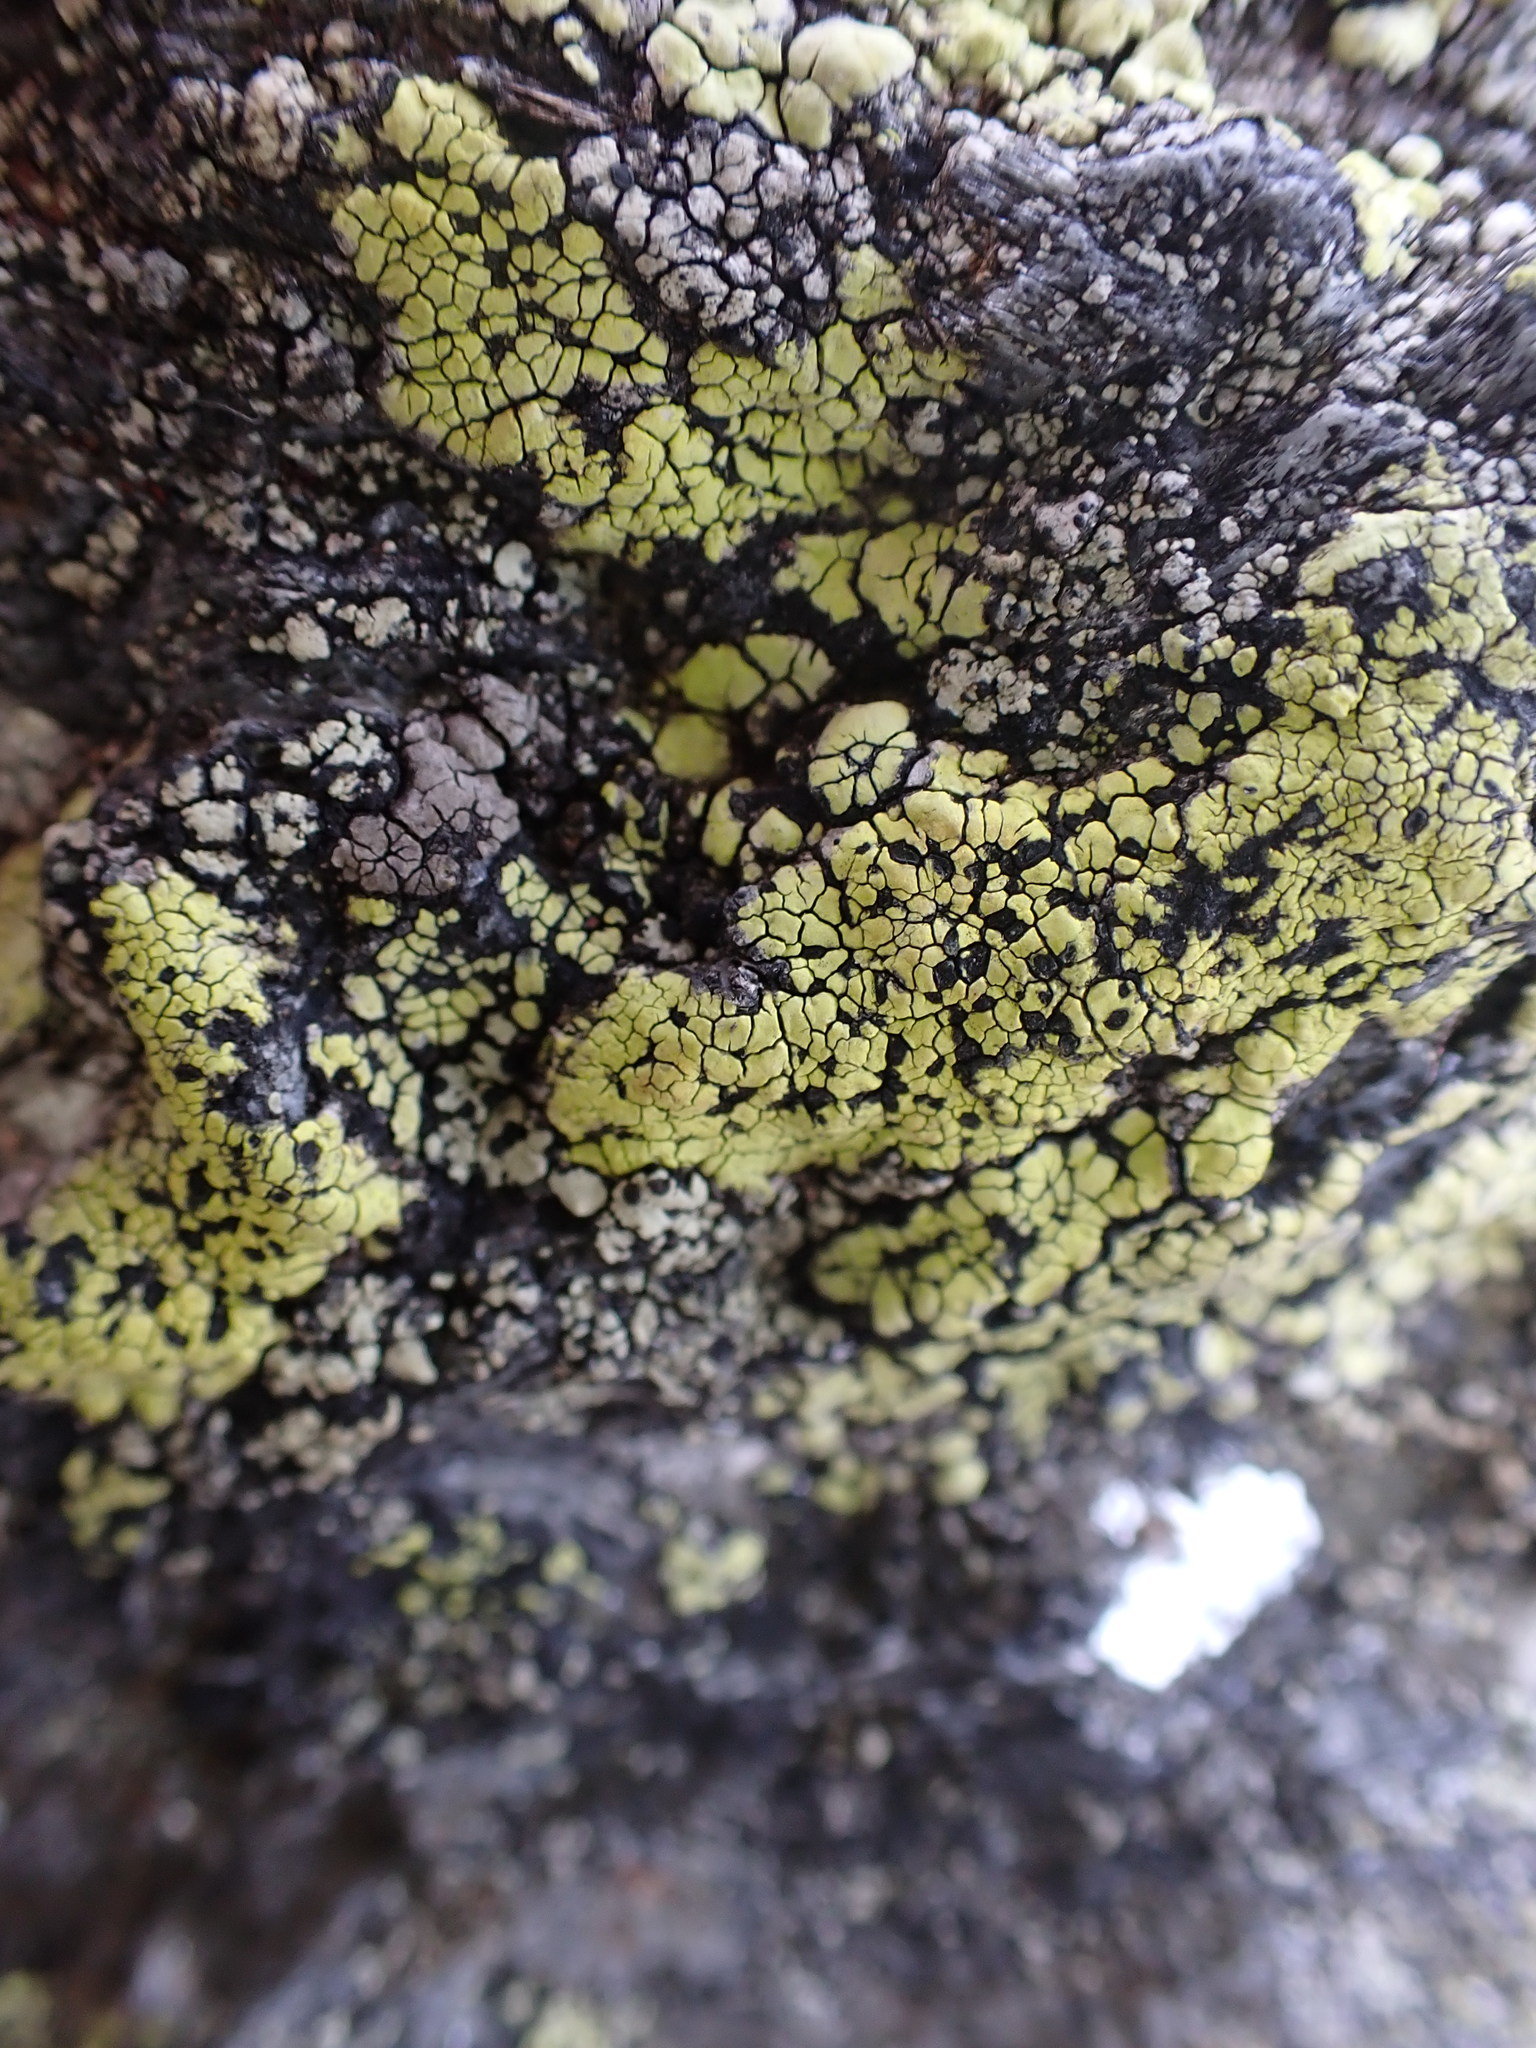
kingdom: Fungi
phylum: Ascomycota
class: Lecanoromycetes
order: Rhizocarpales
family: Rhizocarpaceae
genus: Rhizocarpon
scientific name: Rhizocarpon geographicum
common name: Yellow map lichen
